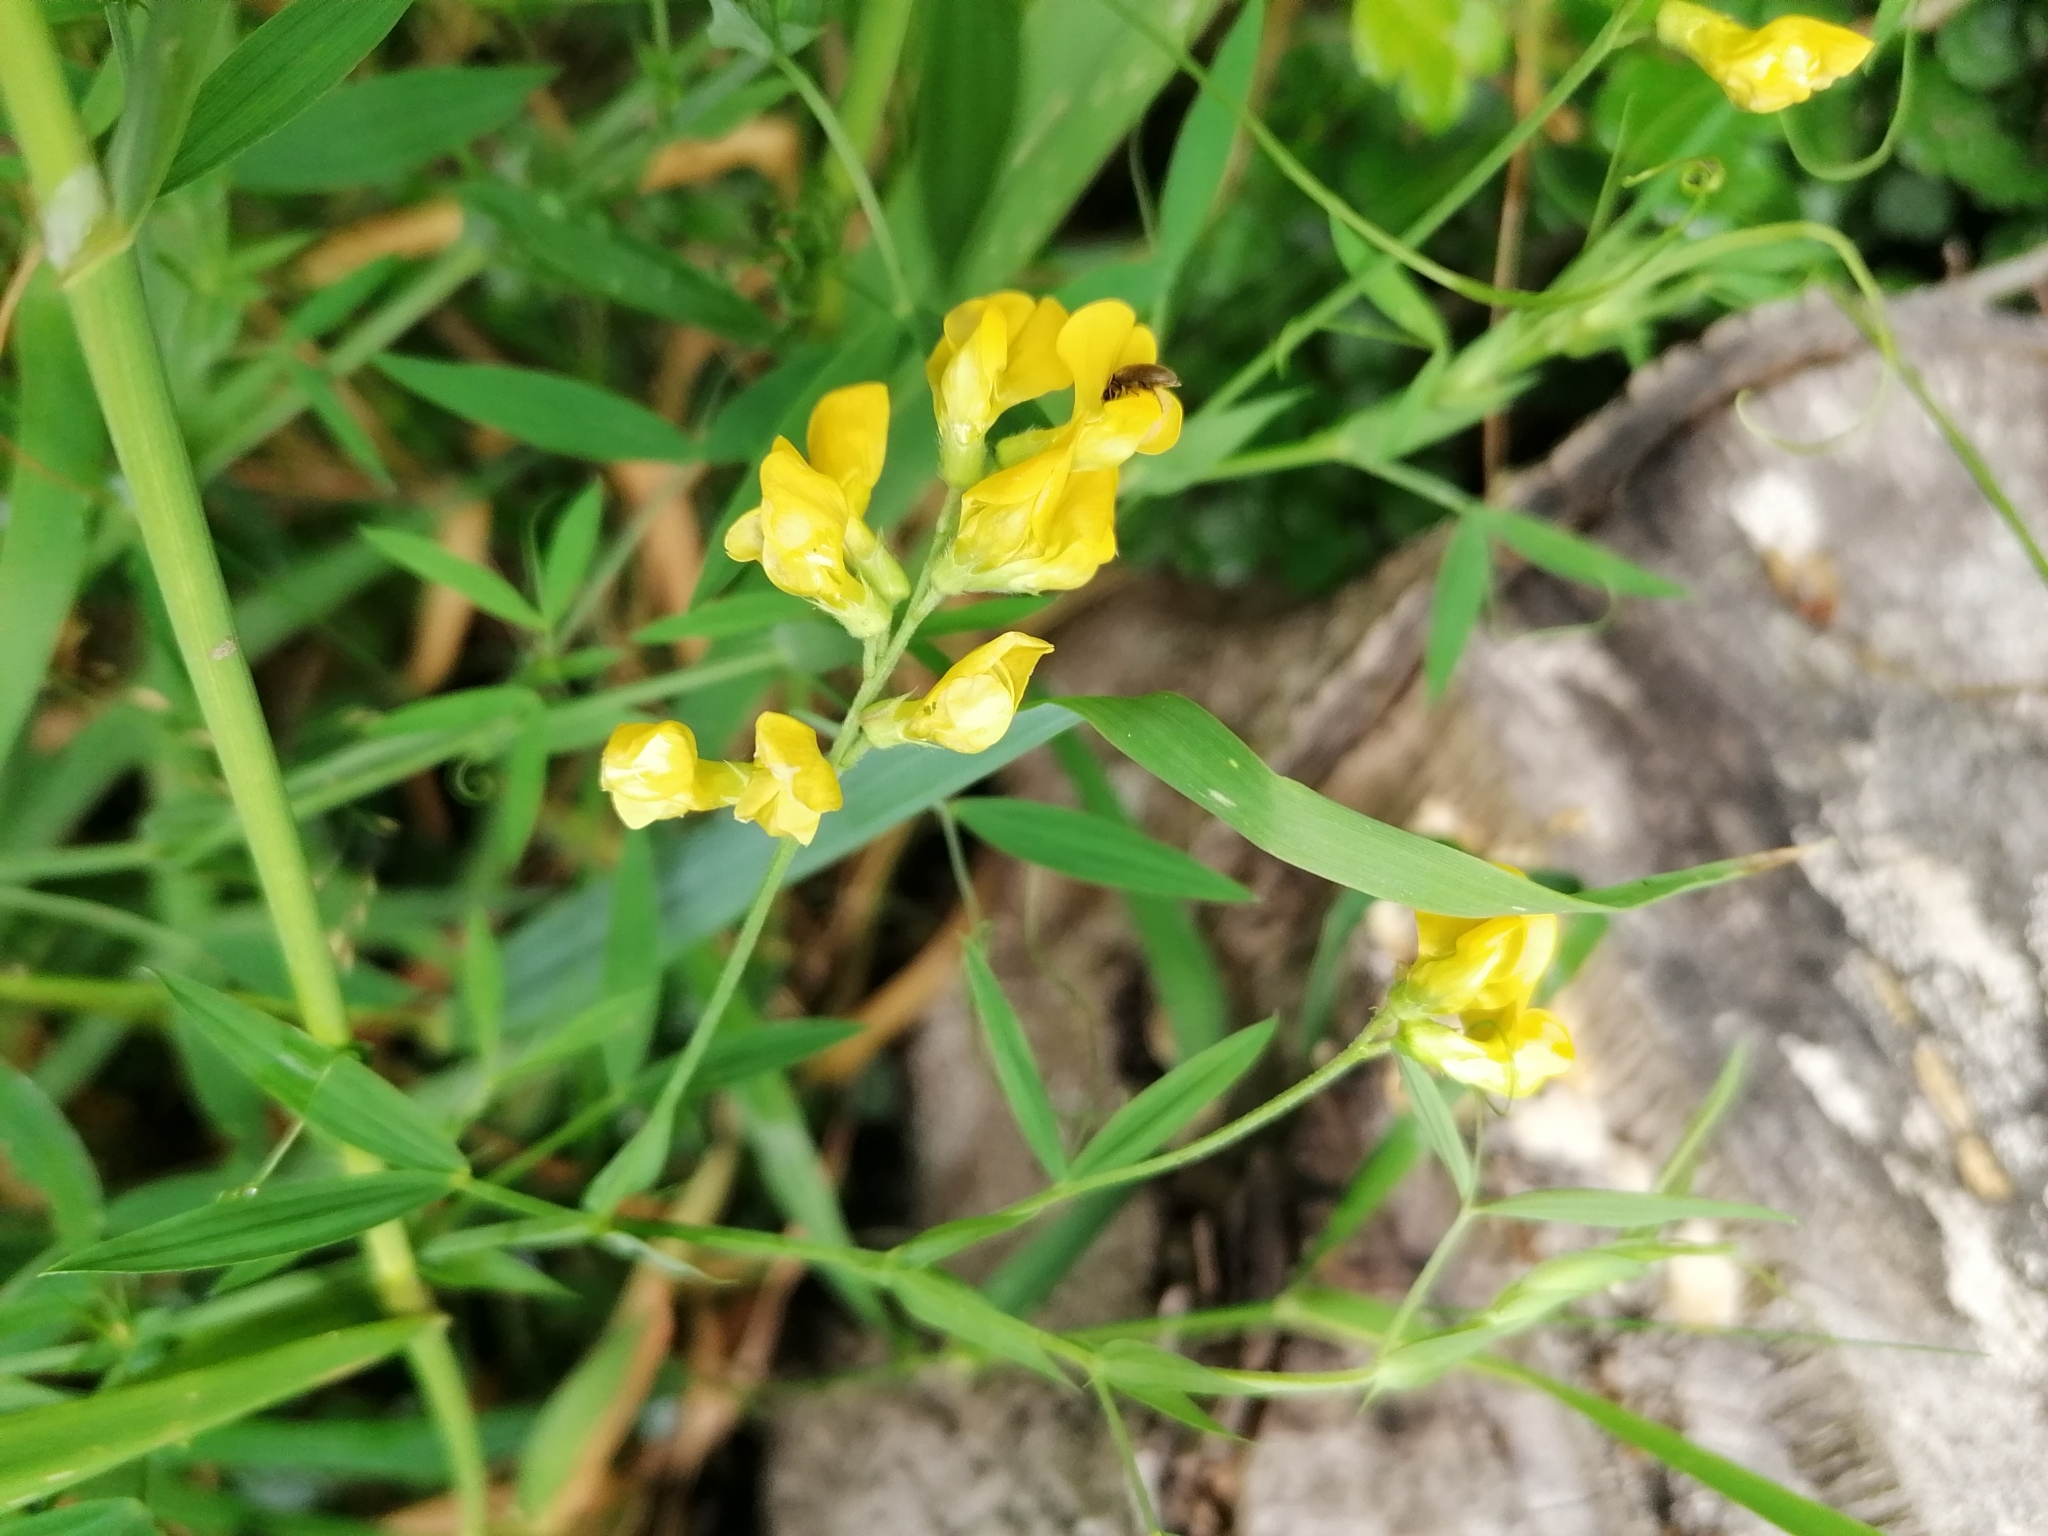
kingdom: Plantae
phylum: Tracheophyta
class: Magnoliopsida
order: Fabales
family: Fabaceae
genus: Lathyrus
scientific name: Lathyrus pratensis
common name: Meadow vetchling
